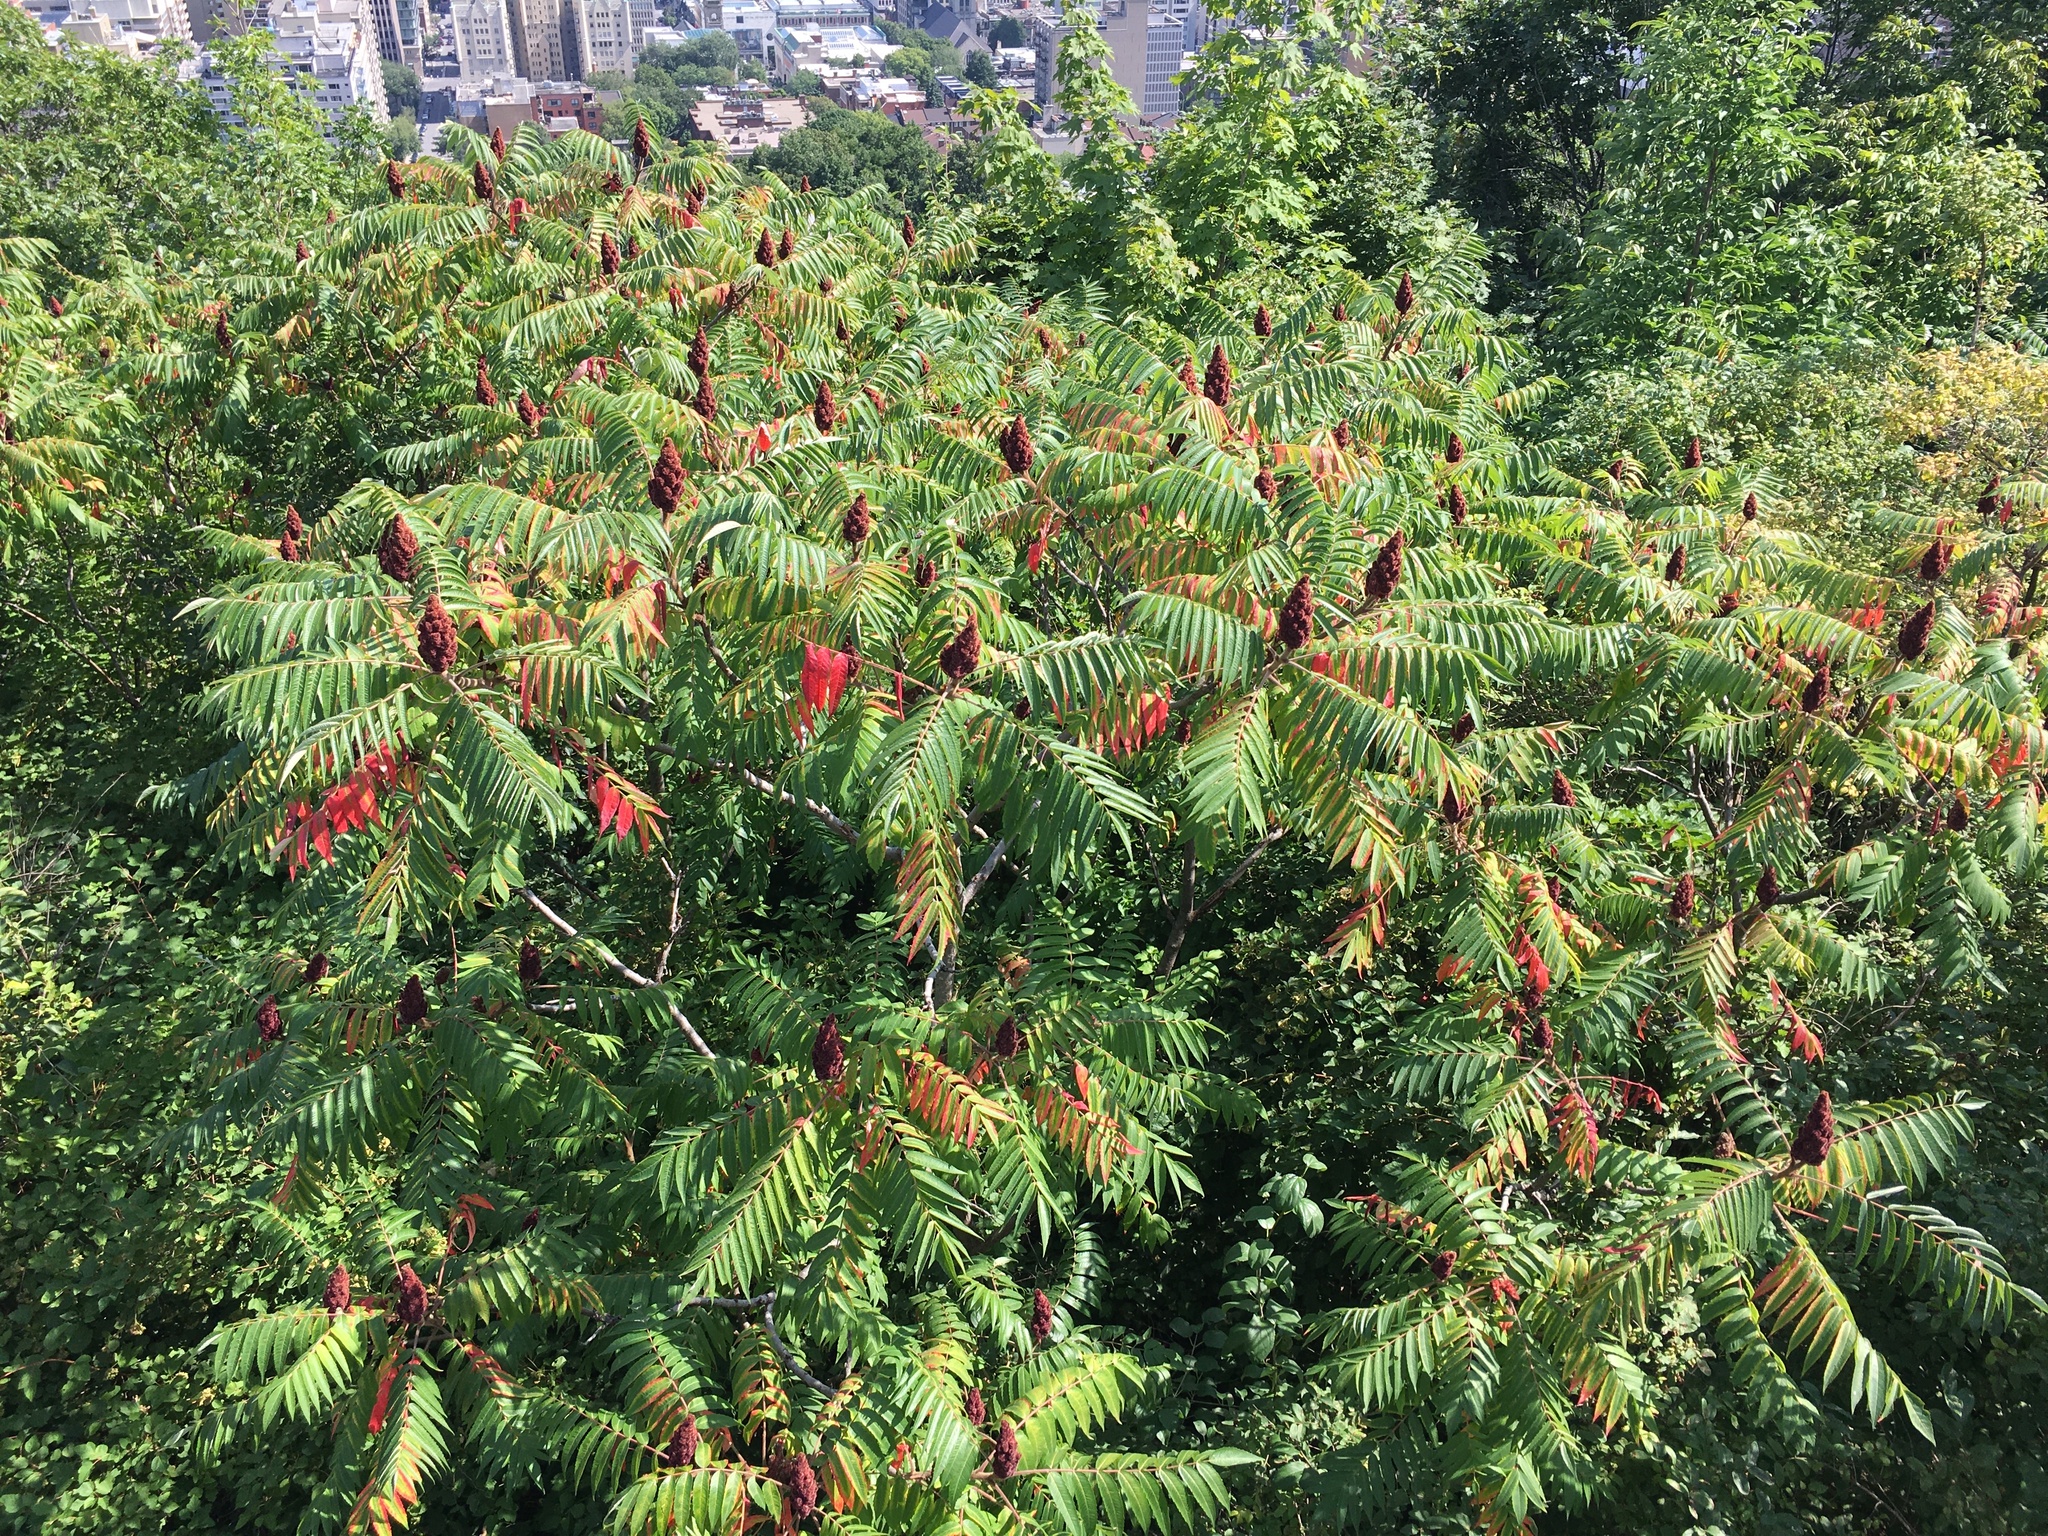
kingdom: Plantae
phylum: Tracheophyta
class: Magnoliopsida
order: Sapindales
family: Anacardiaceae
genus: Rhus
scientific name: Rhus typhina
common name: Staghorn sumac
